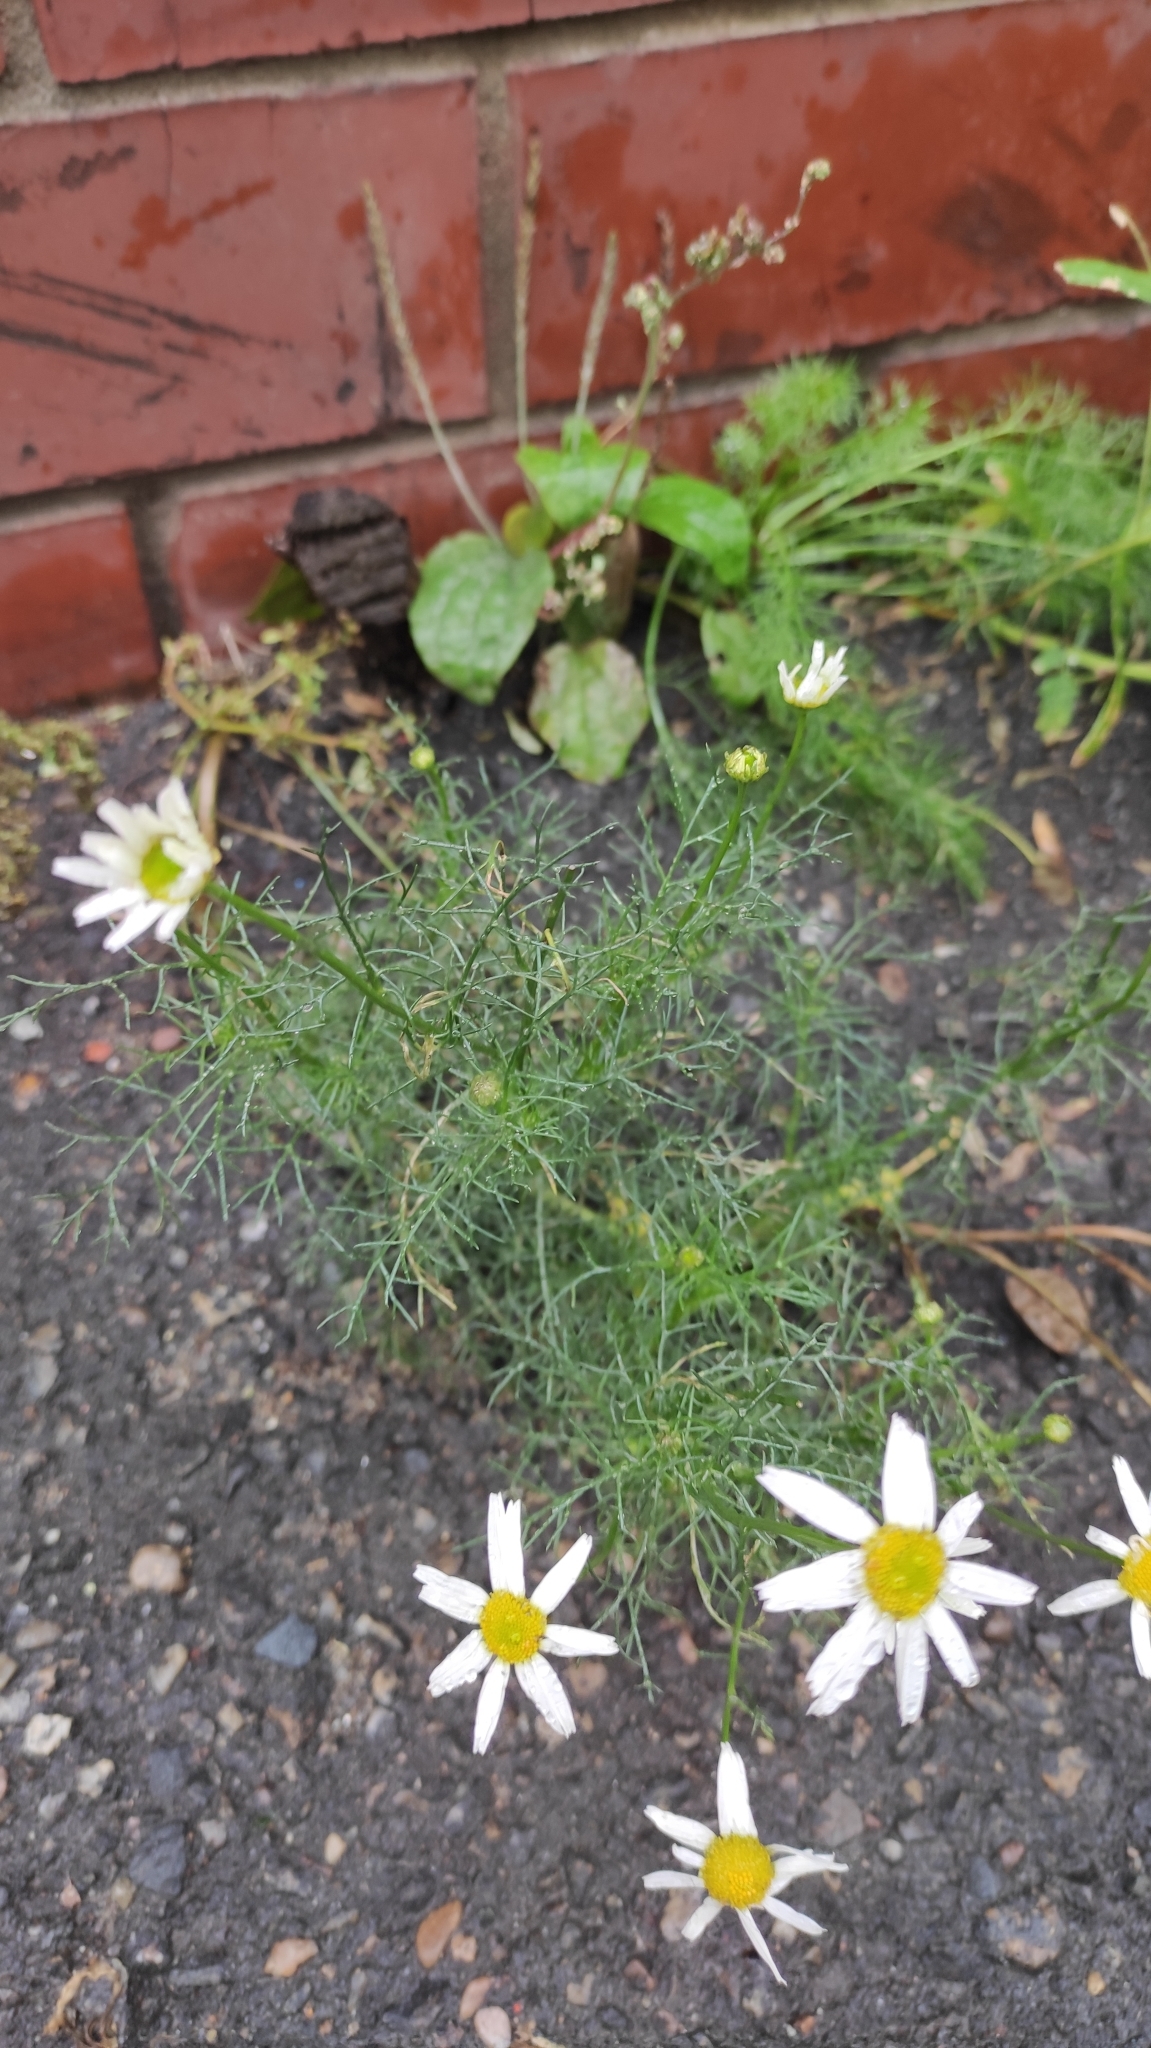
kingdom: Plantae
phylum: Tracheophyta
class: Magnoliopsida
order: Asterales
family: Asteraceae
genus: Tripleurospermum
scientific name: Tripleurospermum inodorum
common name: Scentless mayweed
